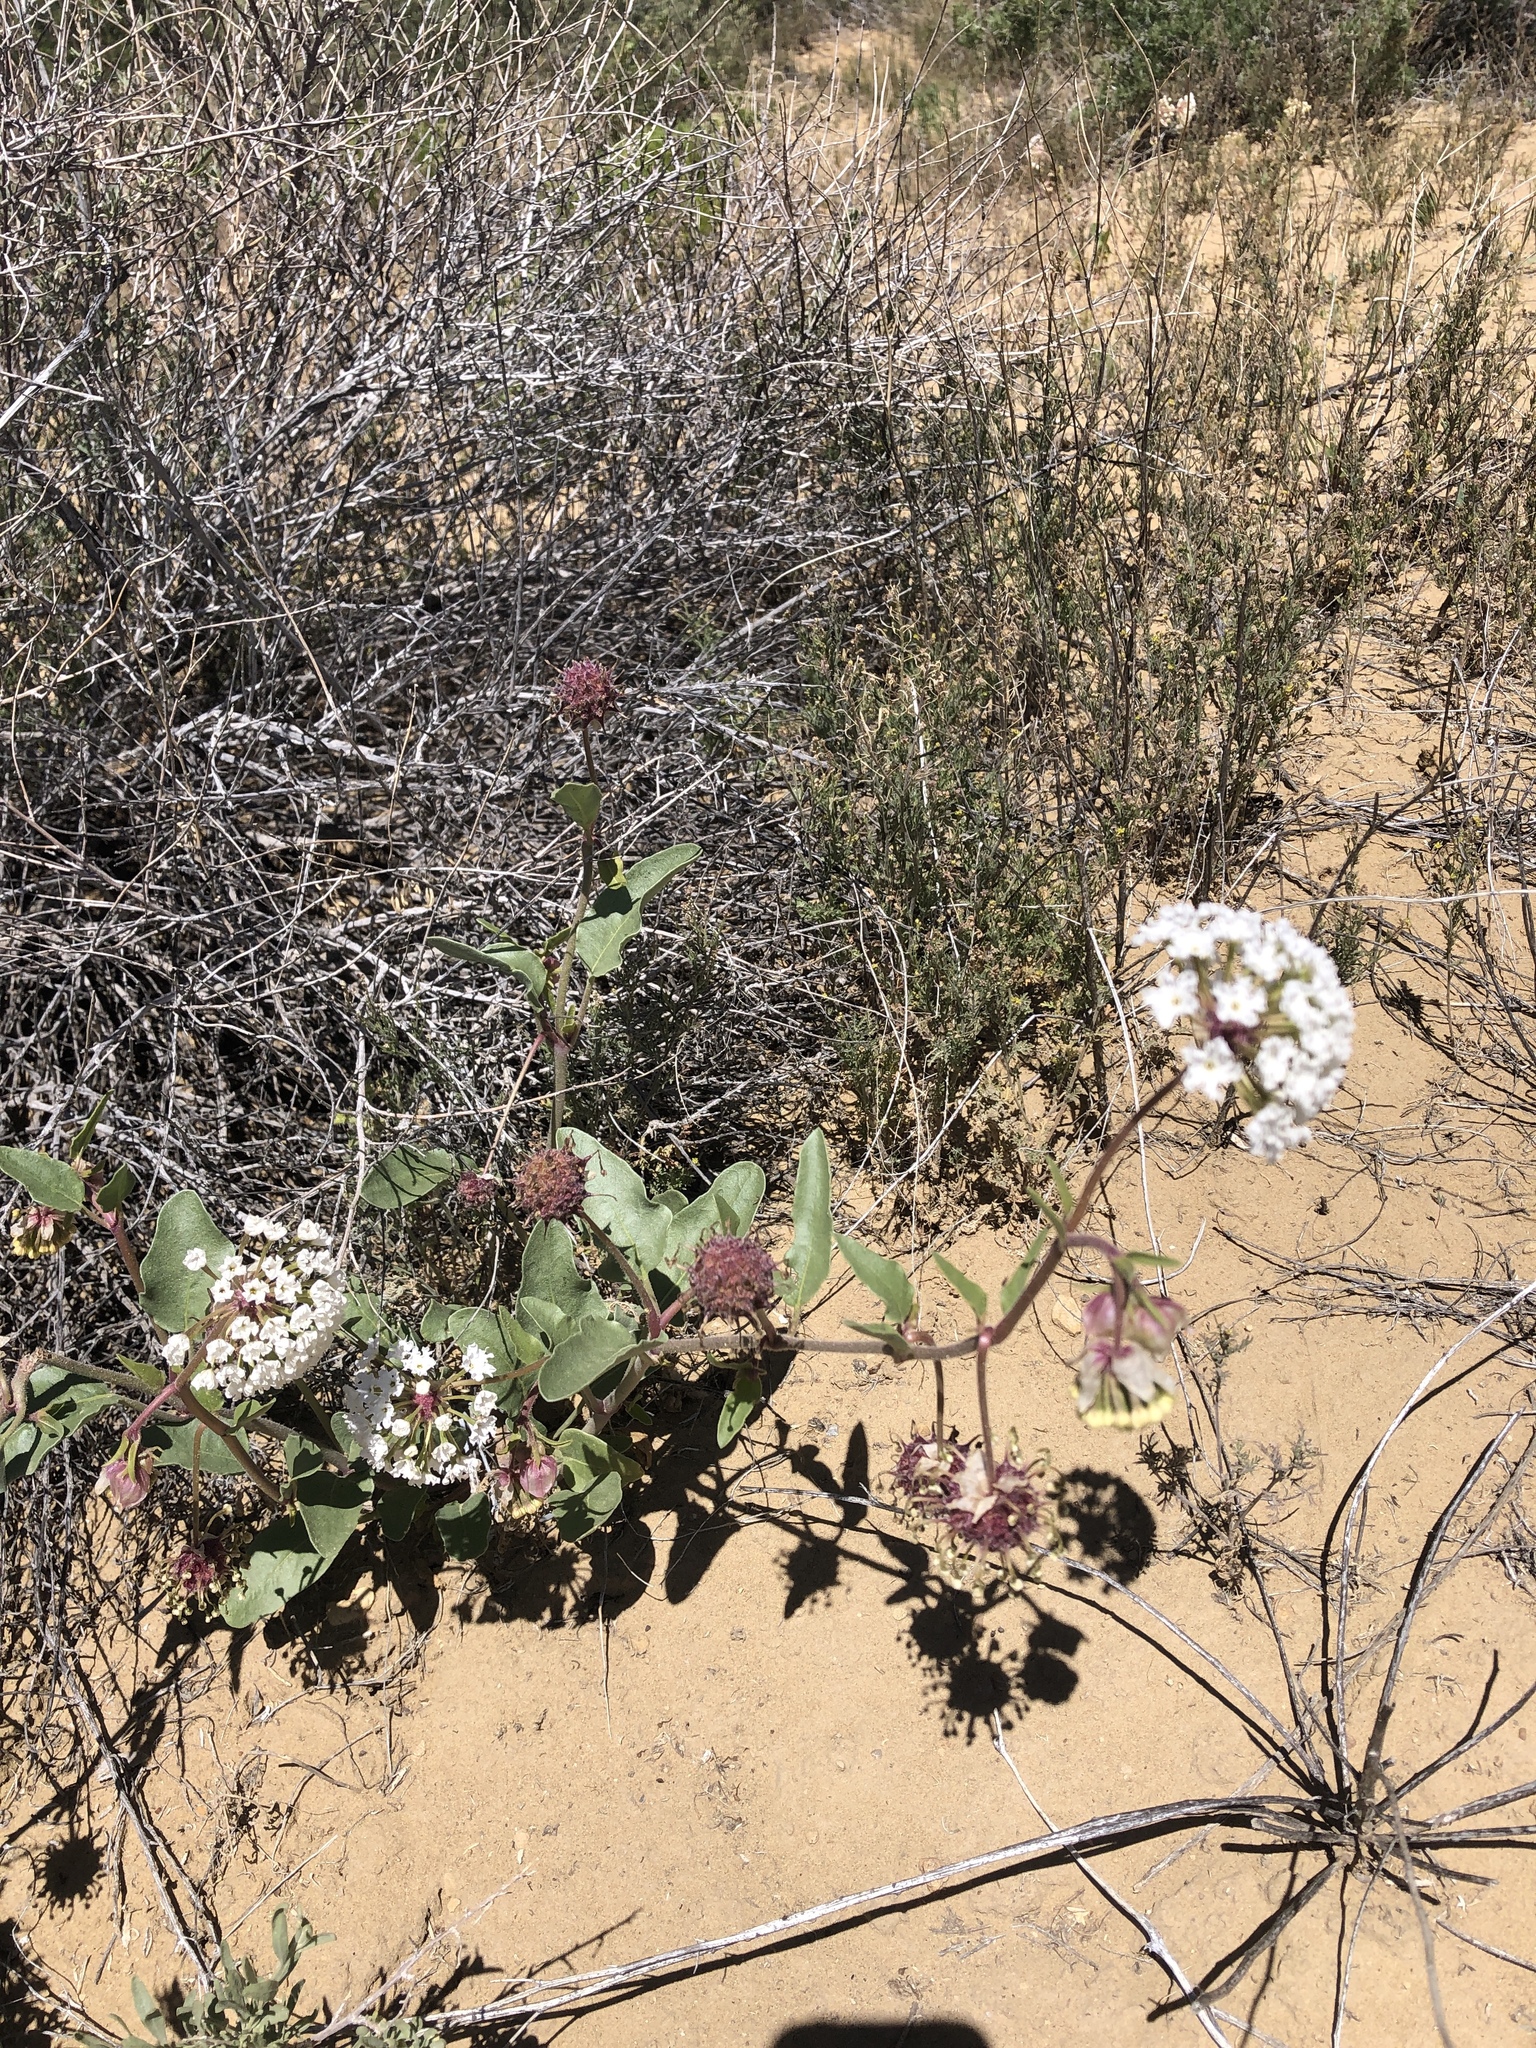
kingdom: Plantae
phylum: Tracheophyta
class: Magnoliopsida
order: Caryophyllales
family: Nyctaginaceae
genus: Abronia
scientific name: Abronia fragrans
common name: Fragrant sand-verbena
